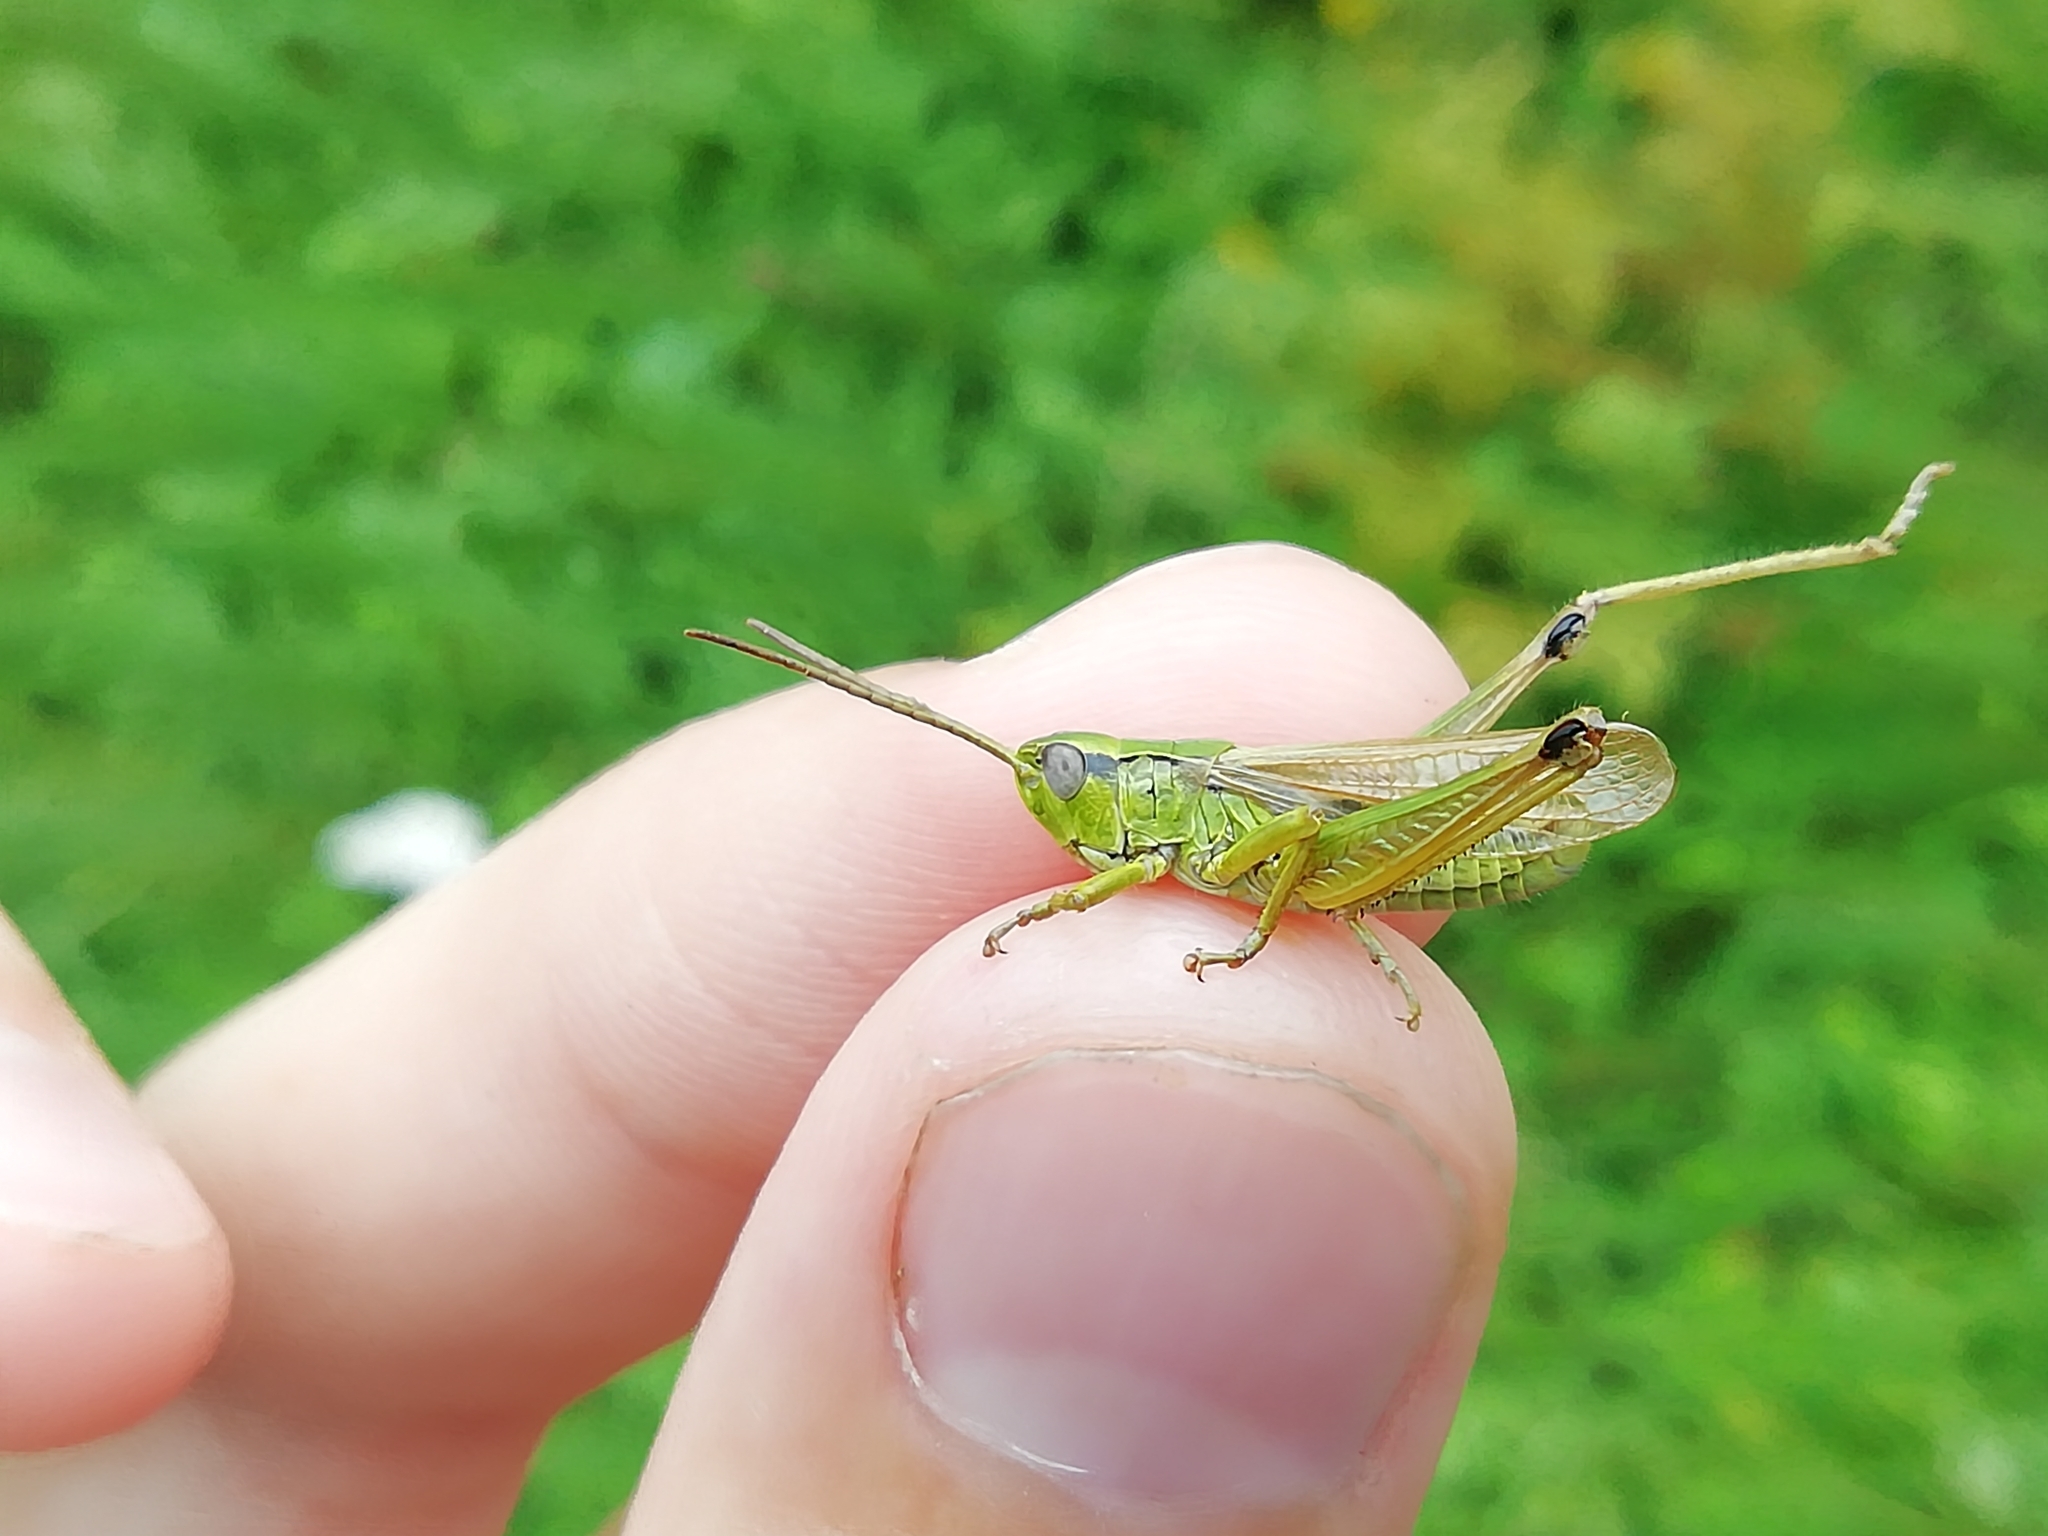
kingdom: Animalia
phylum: Arthropoda
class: Insecta
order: Orthoptera
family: Acrididae
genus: Chorthippus
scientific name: Chorthippus fallax
